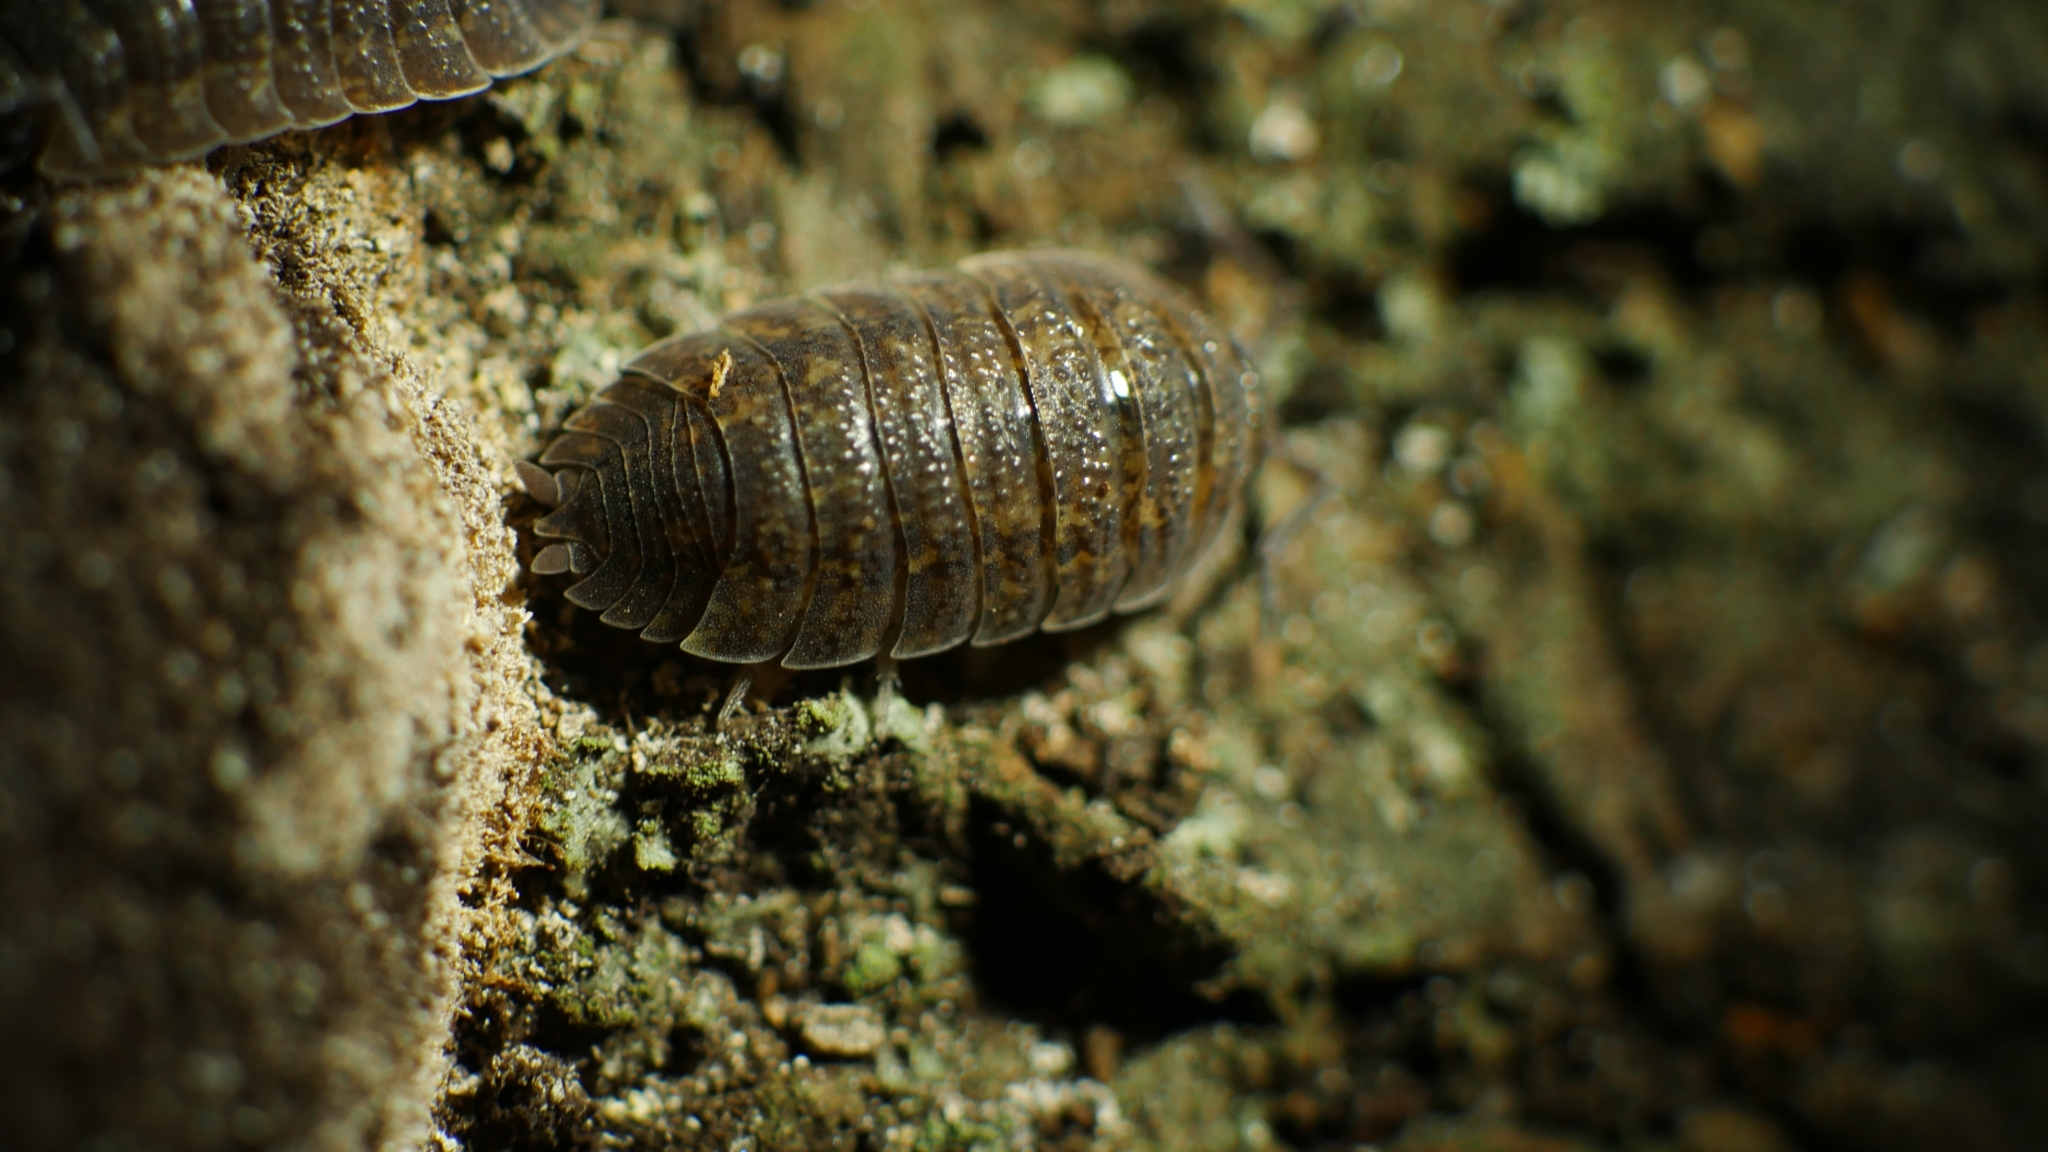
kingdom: Animalia
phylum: Arthropoda
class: Malacostraca
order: Isopoda
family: Porcellionidae
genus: Porcellio
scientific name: Porcellio scaber
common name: Common rough woodlouse
